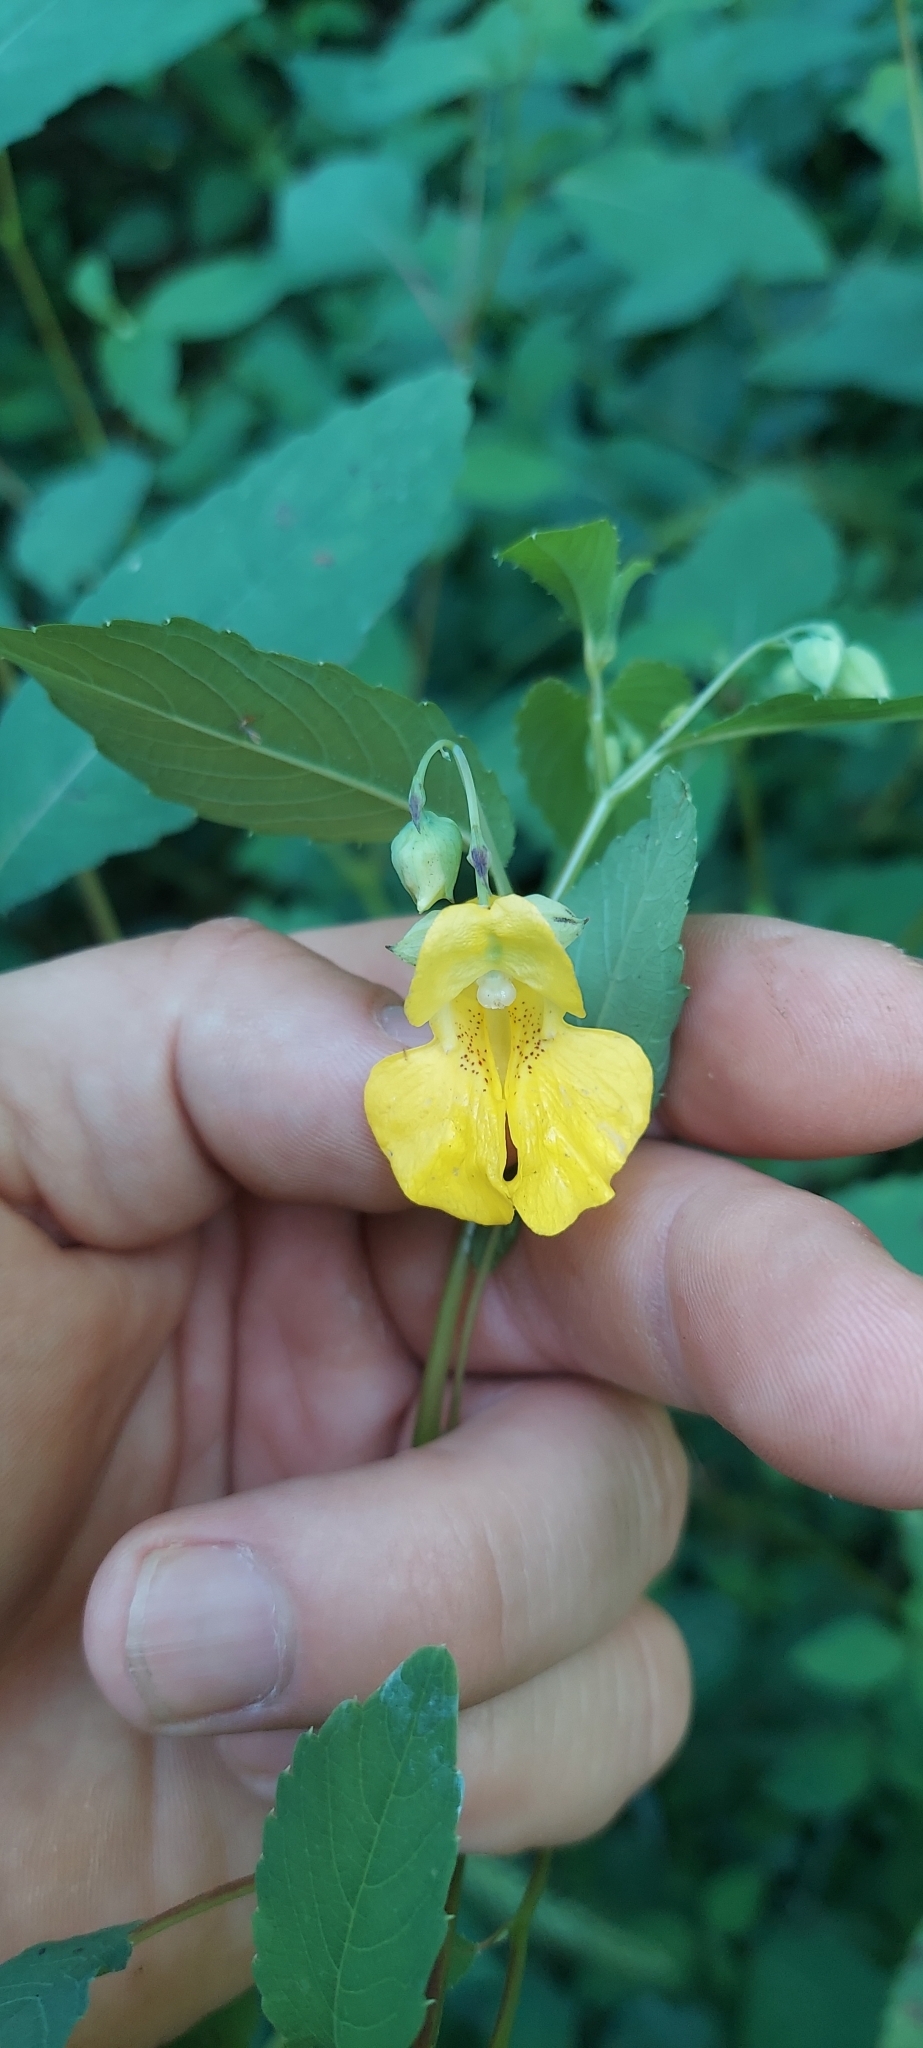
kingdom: Plantae
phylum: Tracheophyta
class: Magnoliopsida
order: Ericales
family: Balsaminaceae
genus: Impatiens
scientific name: Impatiens pallida
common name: Pale snapweed
